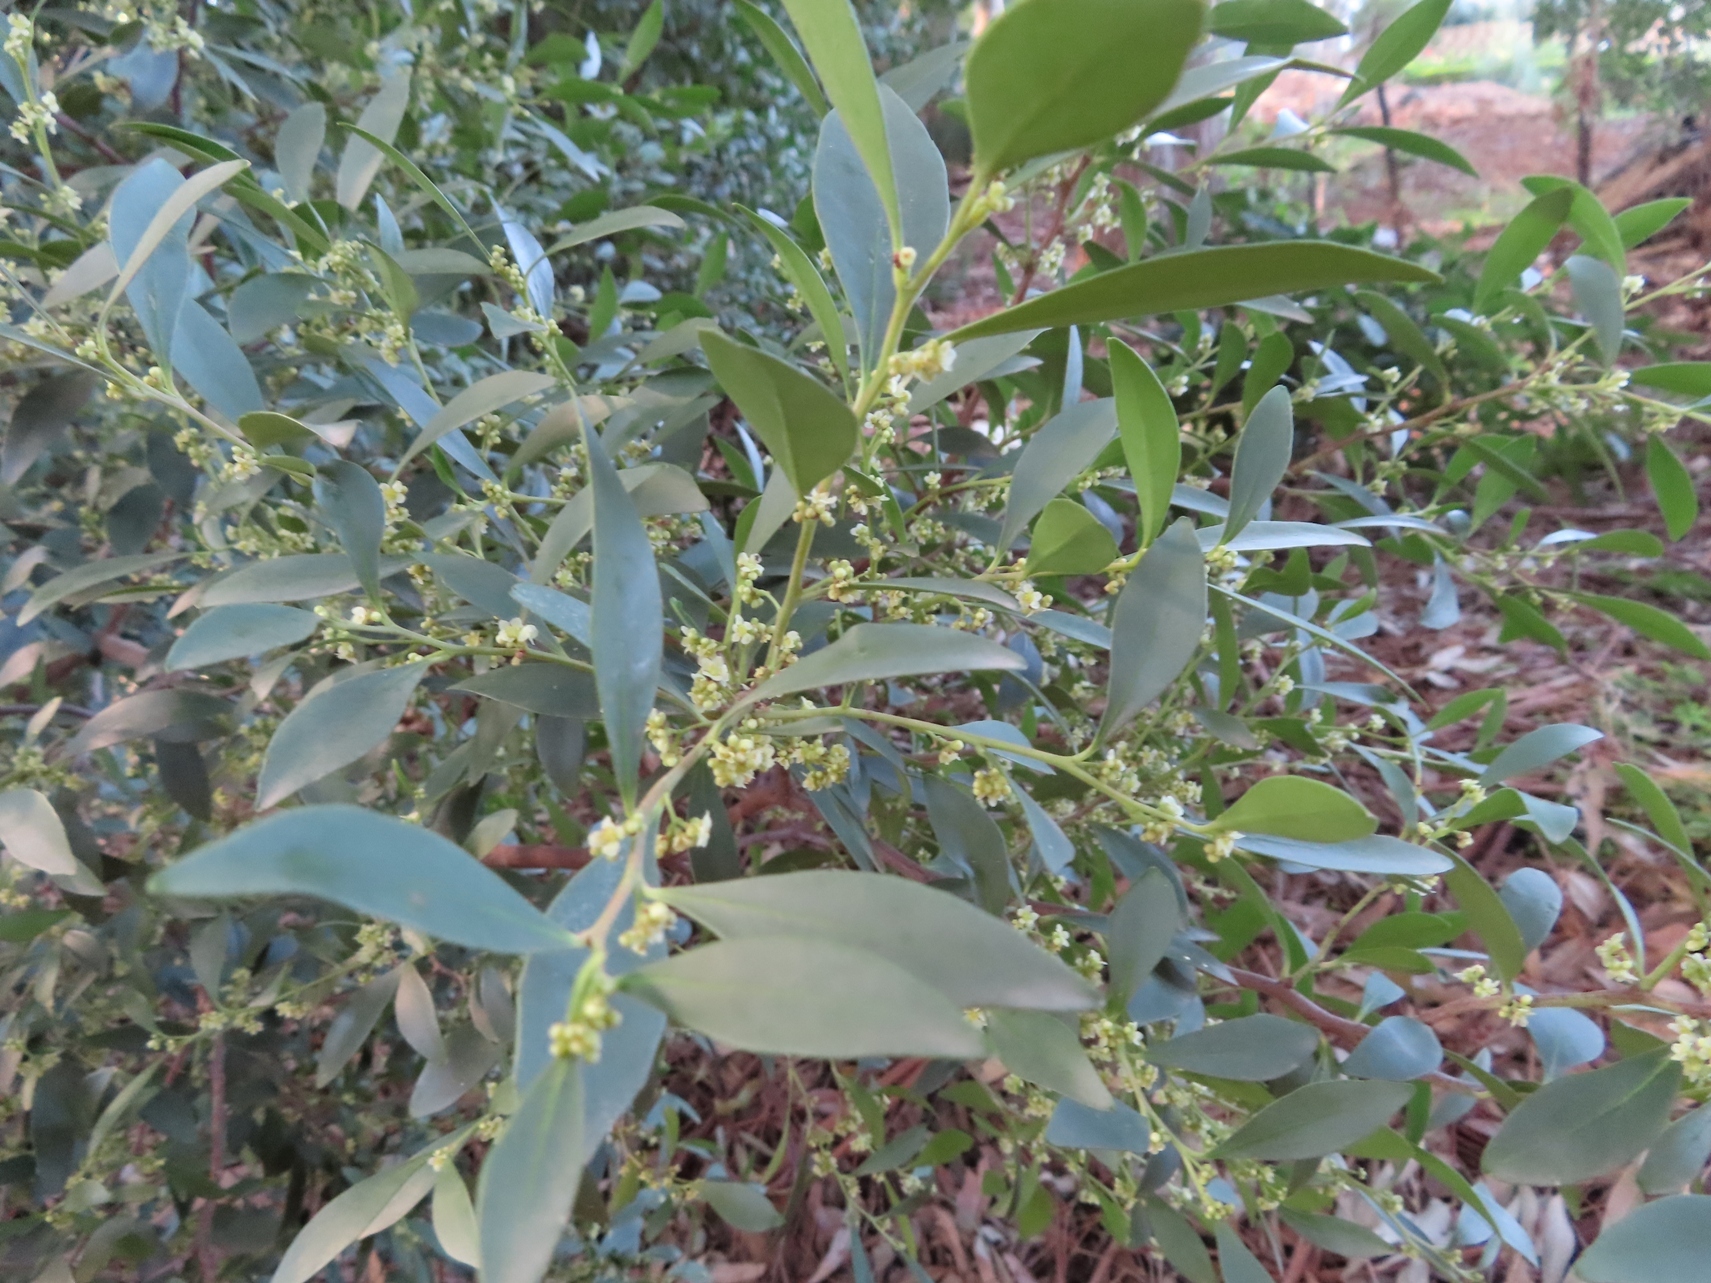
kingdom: Plantae
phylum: Tracheophyta
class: Magnoliopsida
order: Celastrales
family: Celastraceae
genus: Gymnosporia
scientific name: Gymnosporia laurina
